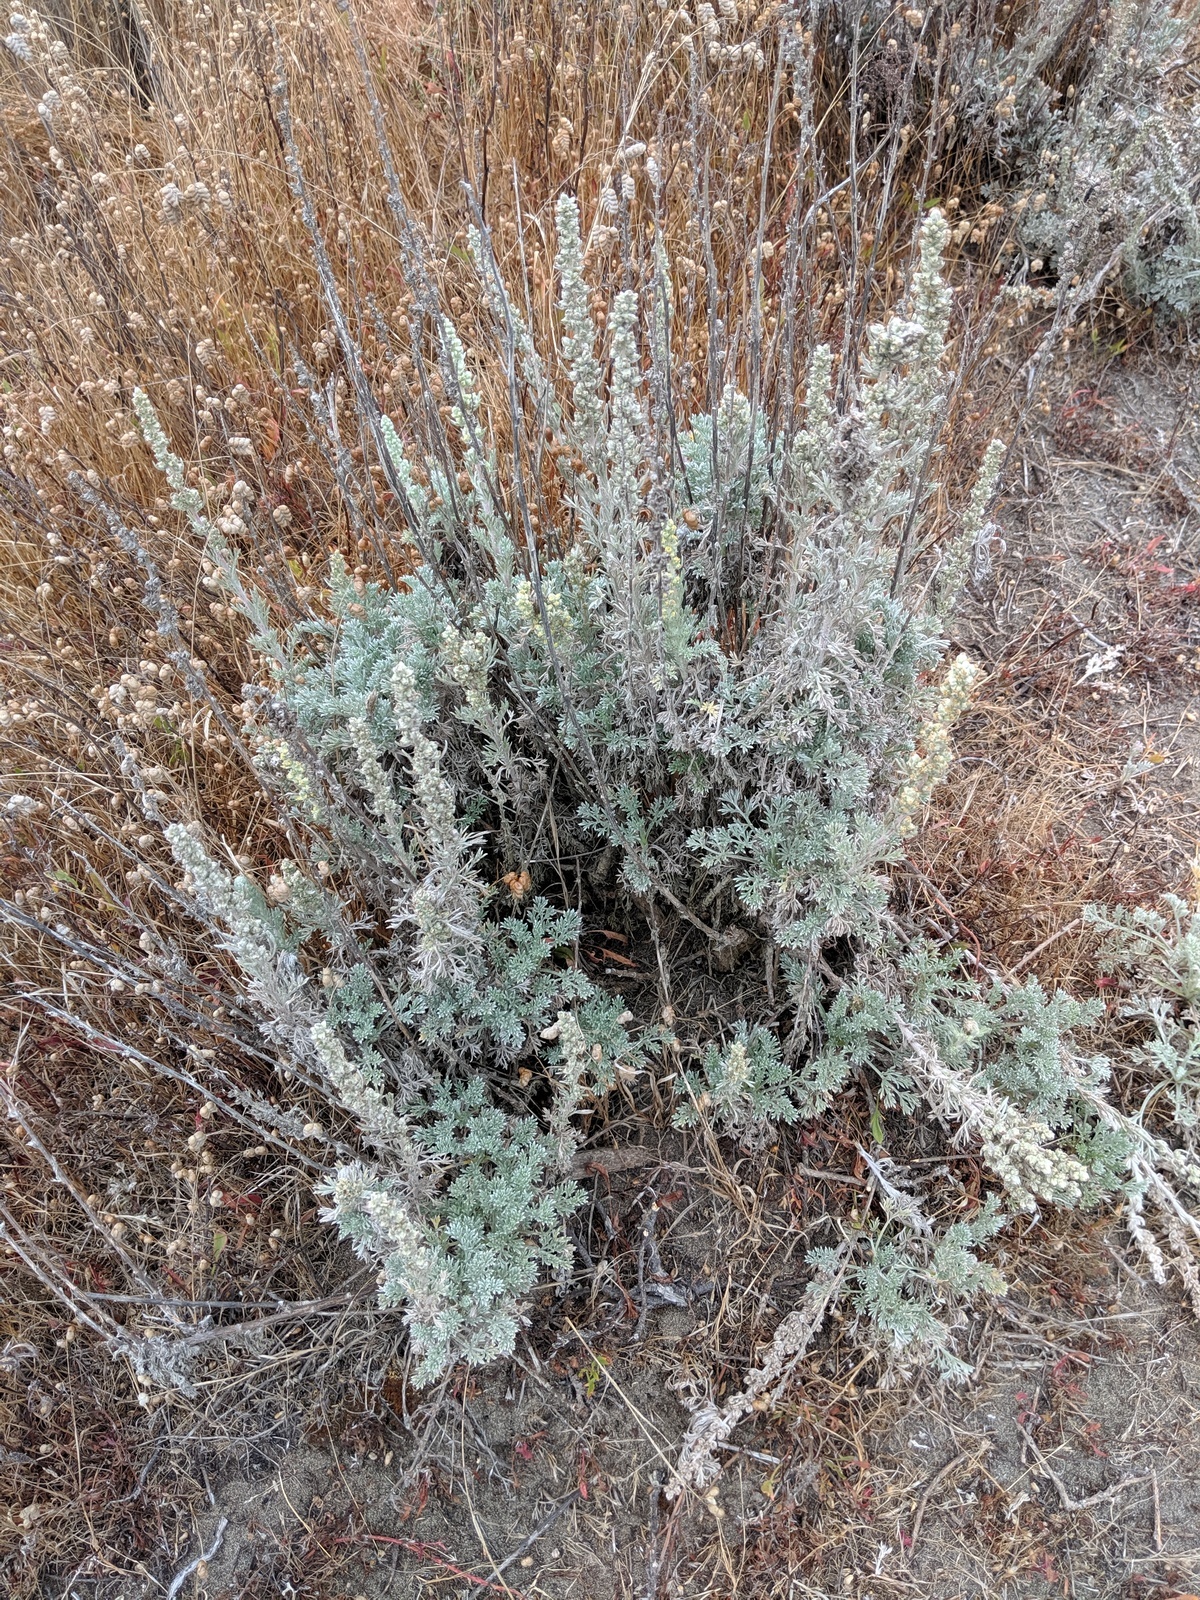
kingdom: Plantae
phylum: Tracheophyta
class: Magnoliopsida
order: Asterales
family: Asteraceae
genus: Artemisia
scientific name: Artemisia pycnocephala
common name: Coastal sagewort
